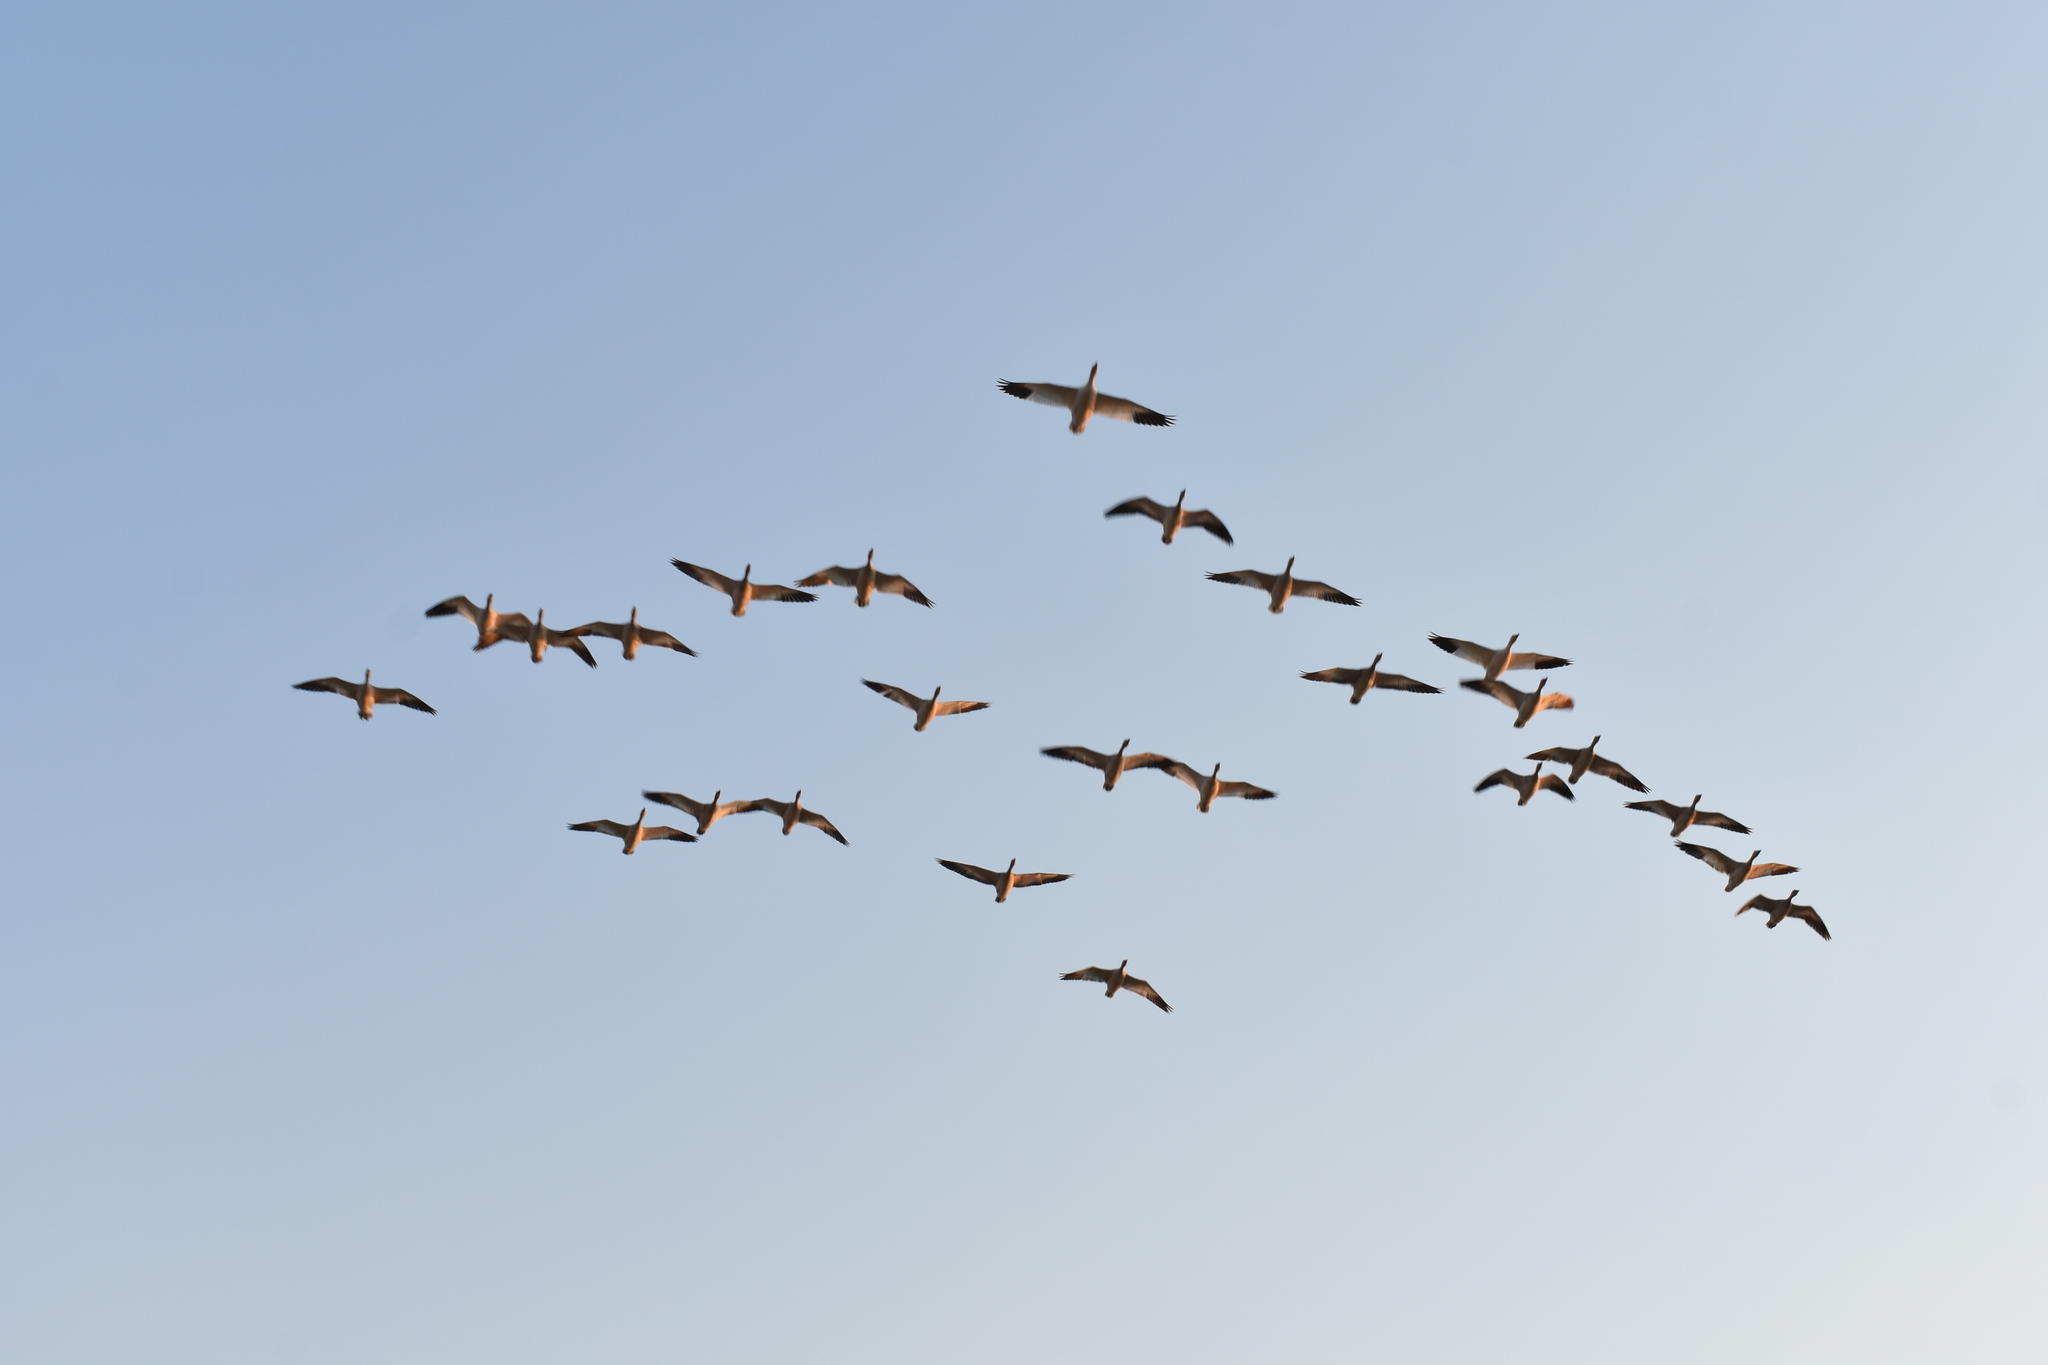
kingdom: Animalia
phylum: Chordata
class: Aves
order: Anseriformes
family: Anatidae
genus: Anser
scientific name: Anser caerulescens
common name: Snow goose
